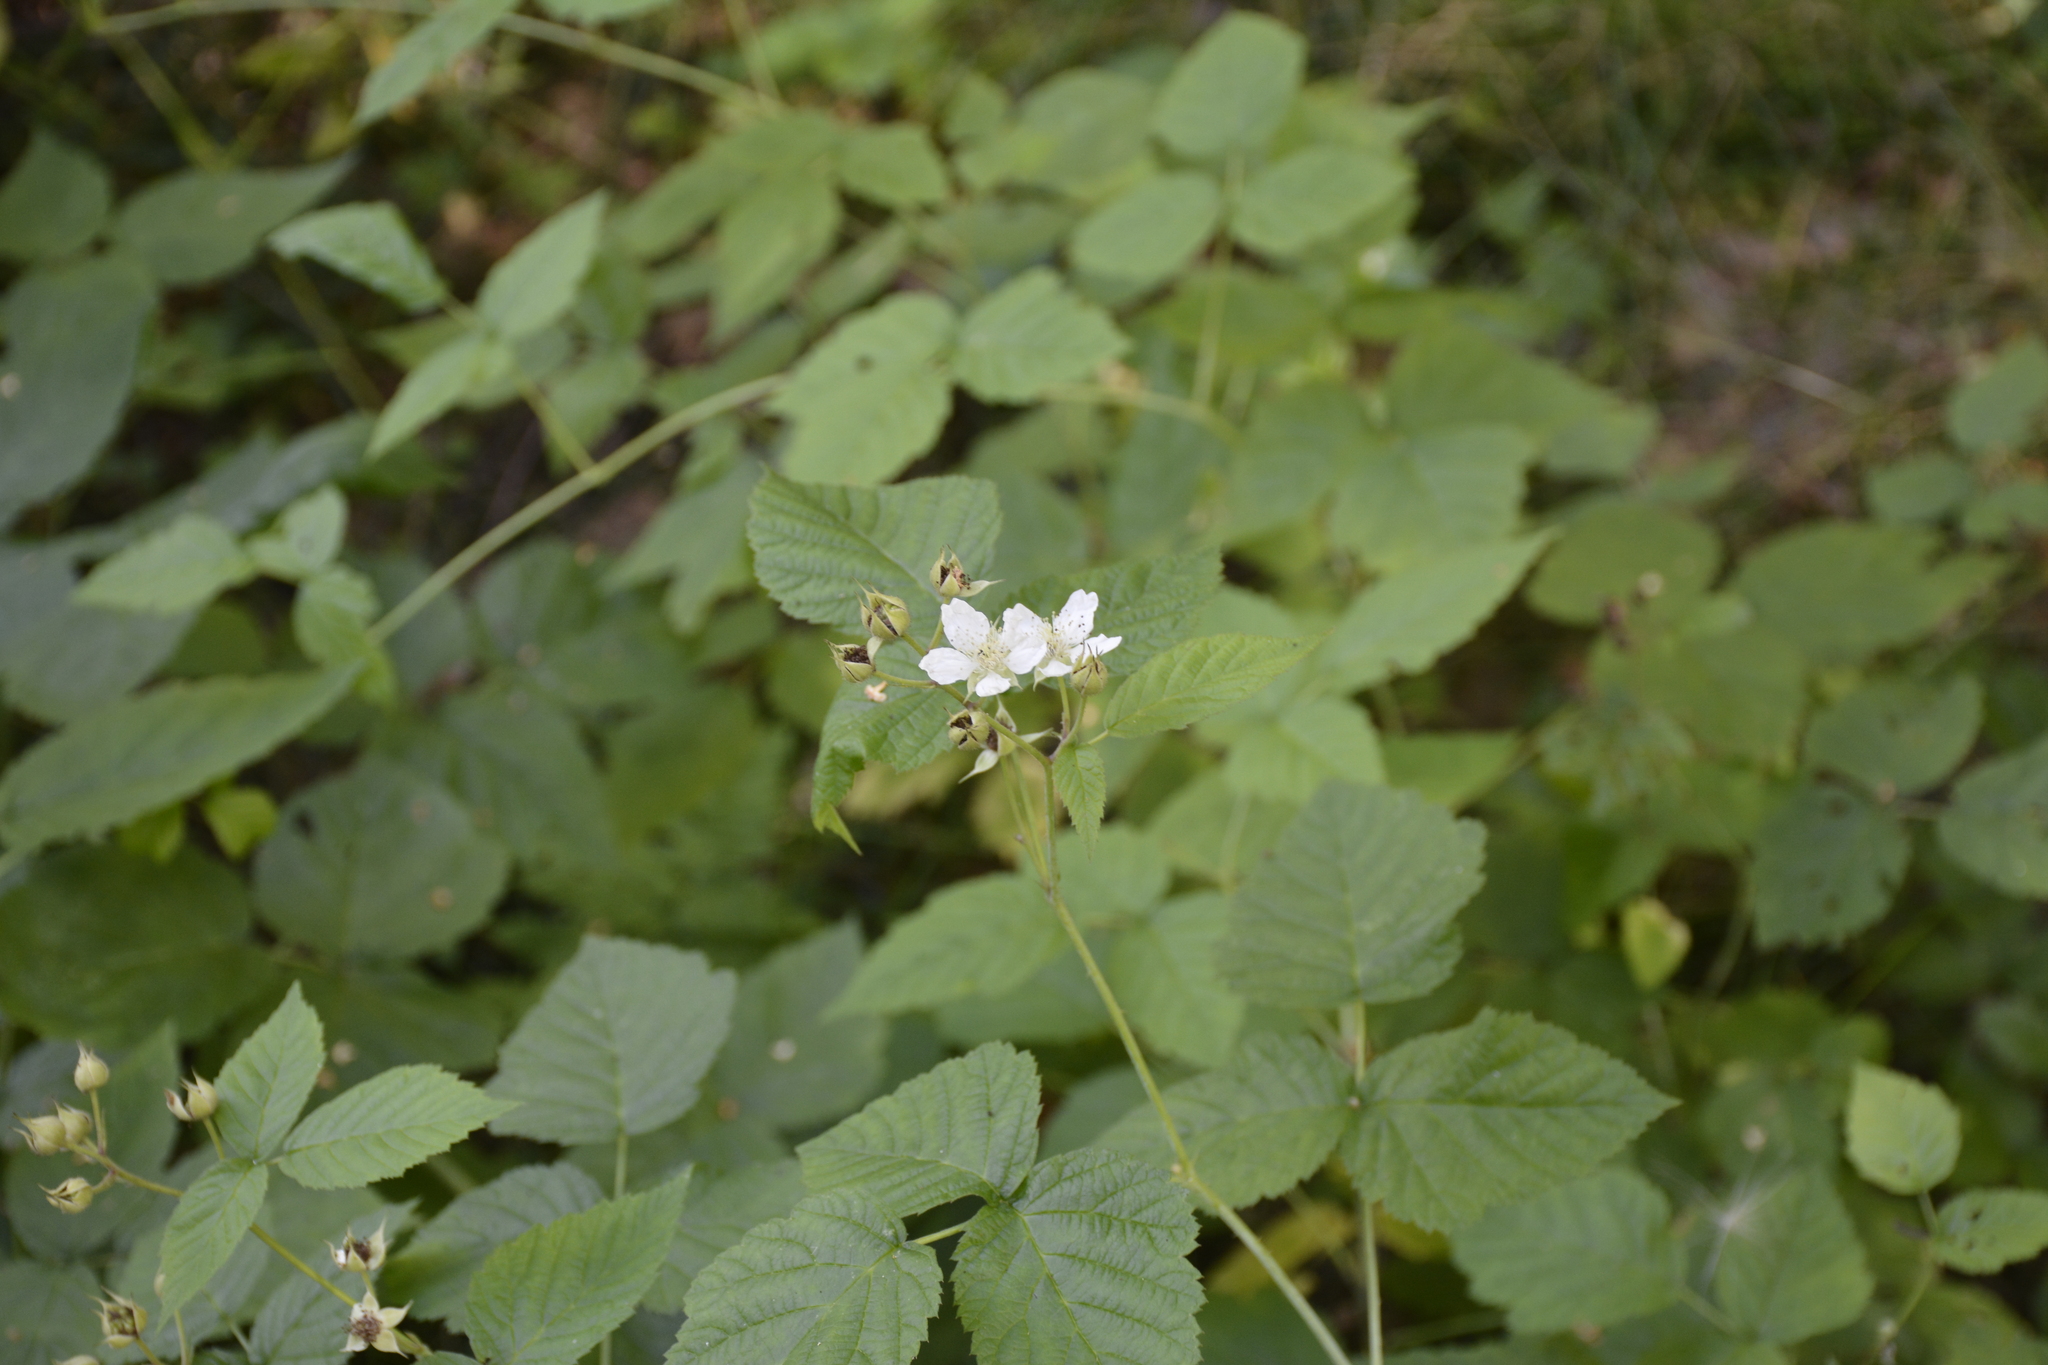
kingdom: Plantae
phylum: Tracheophyta
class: Magnoliopsida
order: Rosales
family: Rosaceae
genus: Rubus
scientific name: Rubus caesius
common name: Dewberry
